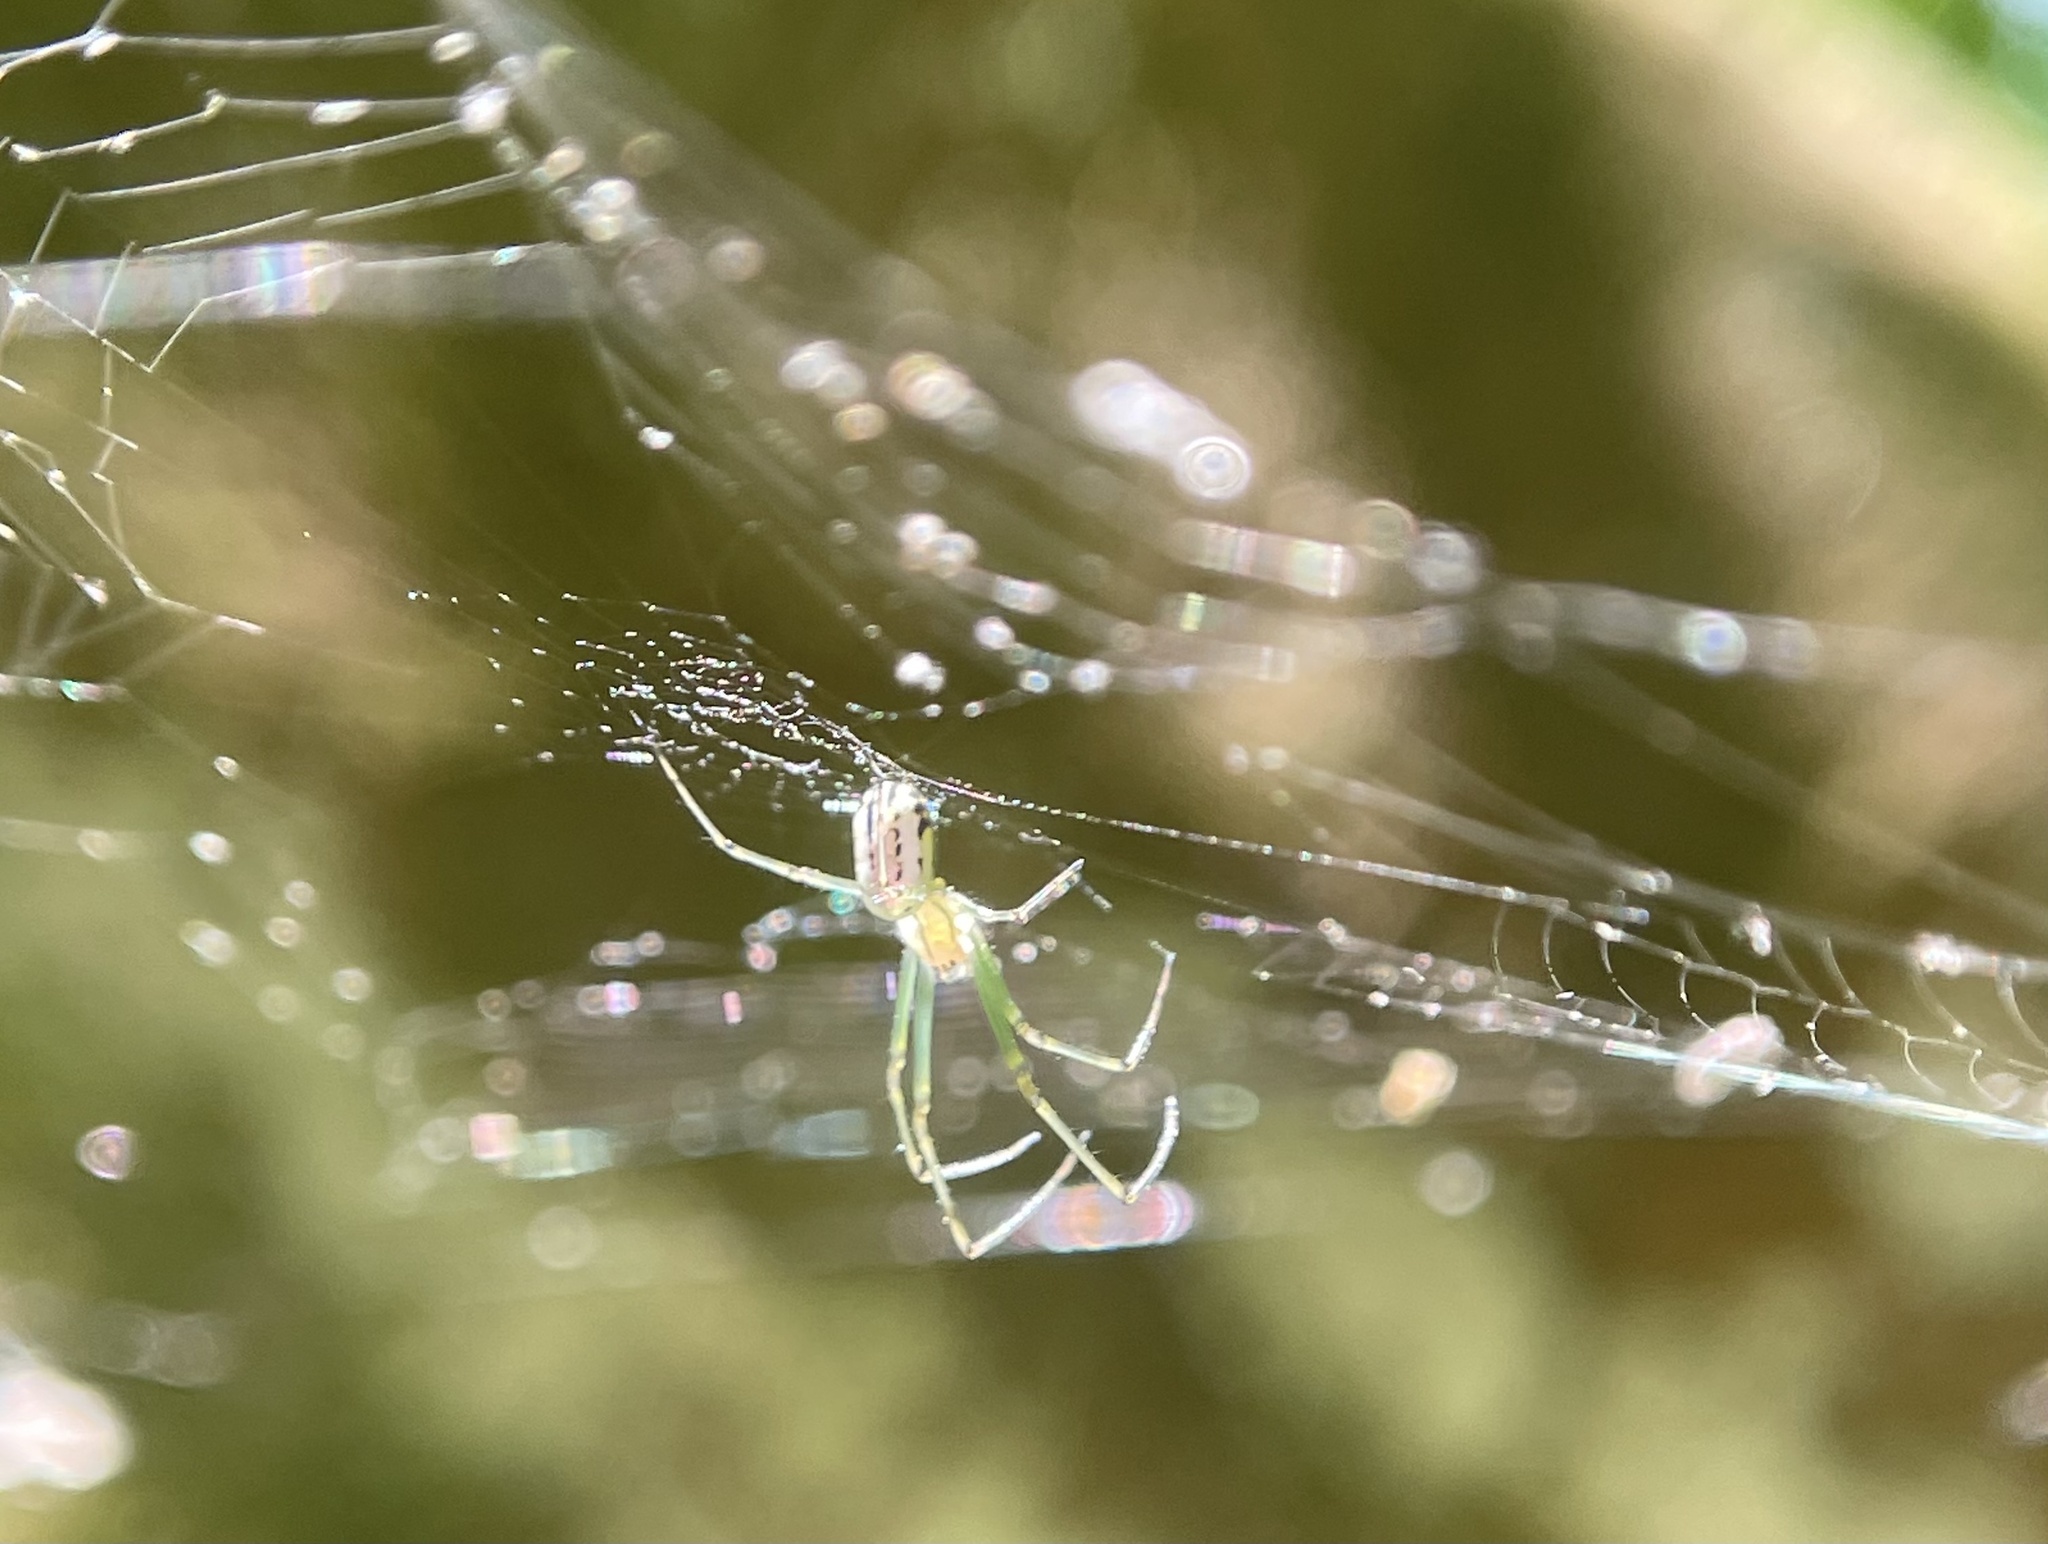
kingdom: Animalia
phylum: Arthropoda
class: Arachnida
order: Araneae
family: Tetragnathidae
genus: Leucauge
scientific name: Leucauge venusta
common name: Longjawed orb weavers
